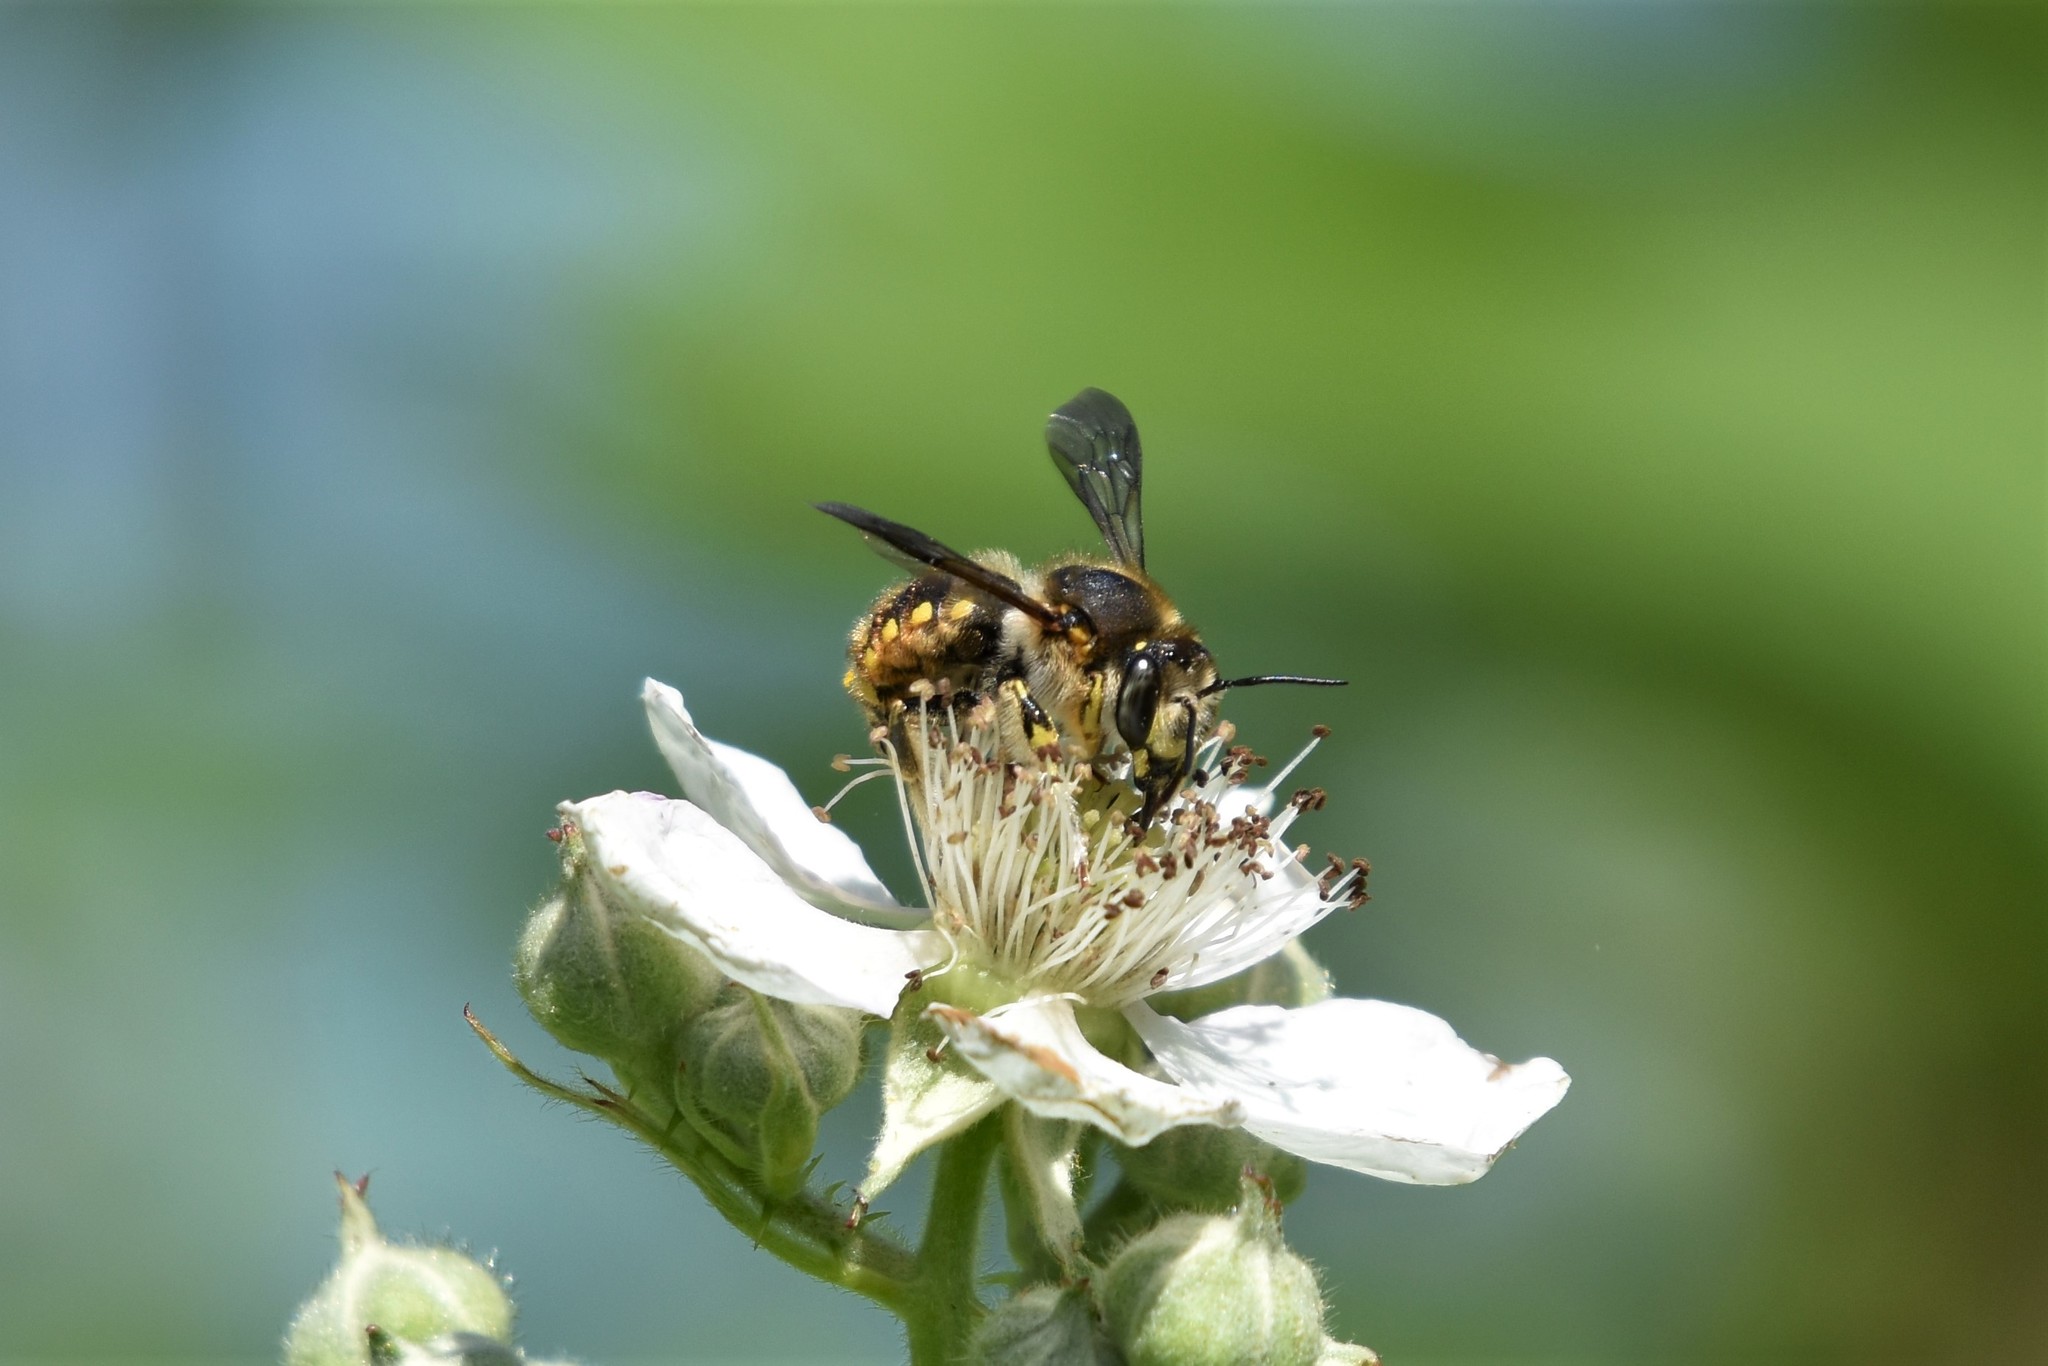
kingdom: Animalia
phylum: Arthropoda
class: Insecta
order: Hymenoptera
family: Megachilidae
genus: Anthidium
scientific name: Anthidium manicatum
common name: Wool carder bee
